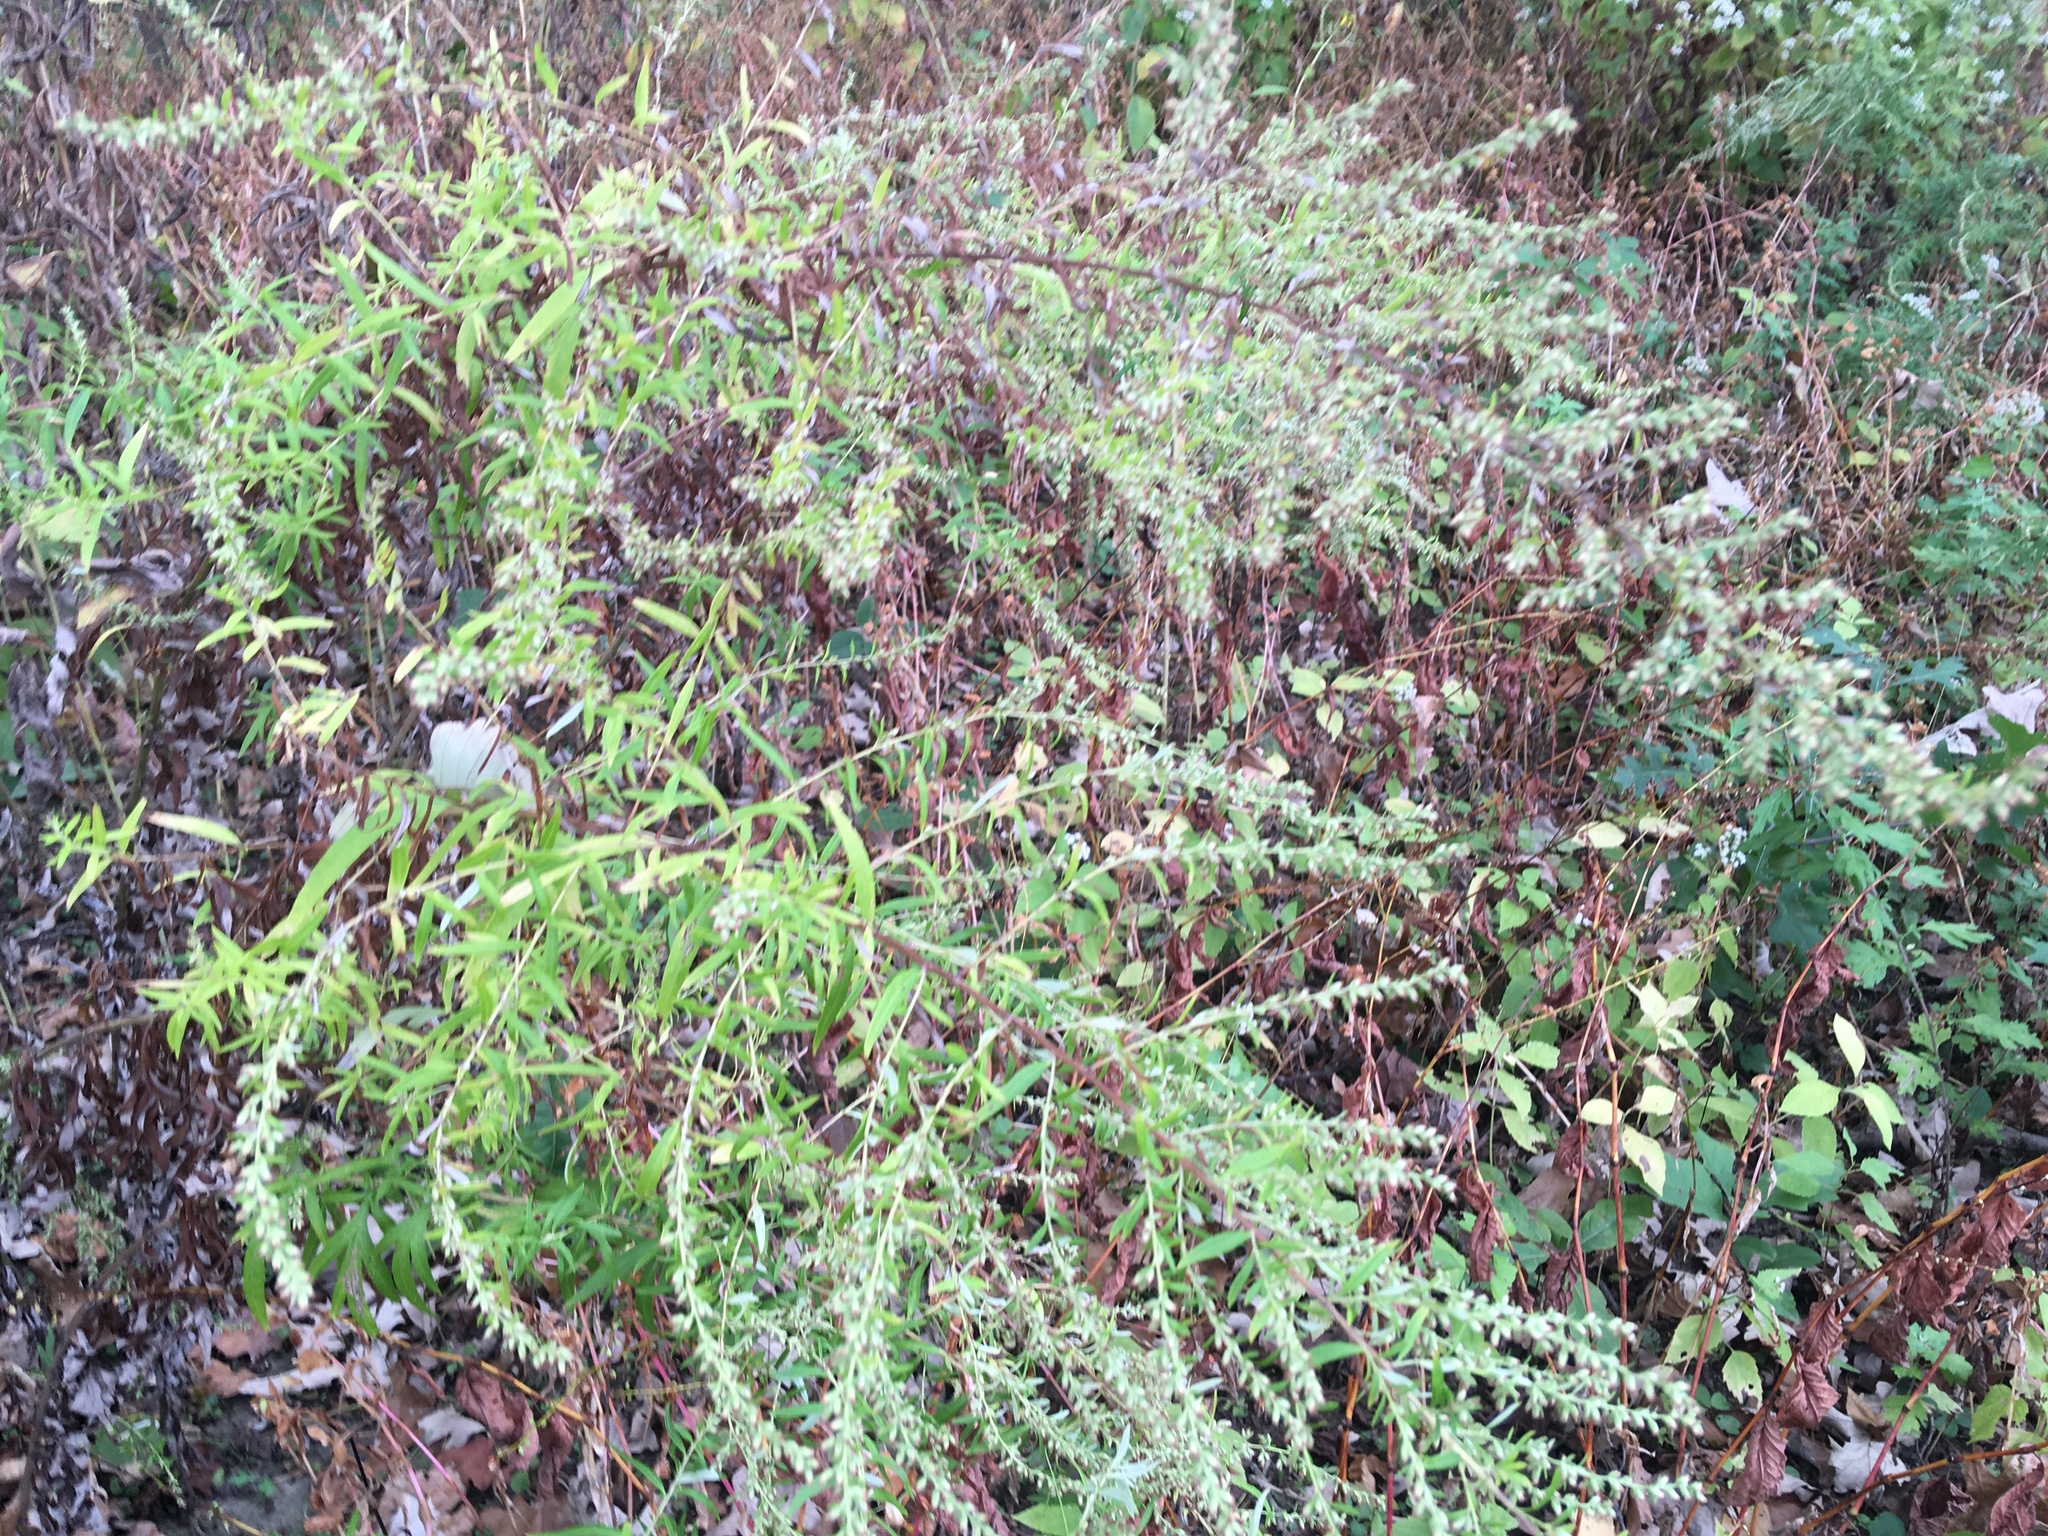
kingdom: Plantae
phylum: Tracheophyta
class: Magnoliopsida
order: Asterales
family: Asteraceae
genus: Artemisia
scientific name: Artemisia vulgaris
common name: Mugwort
